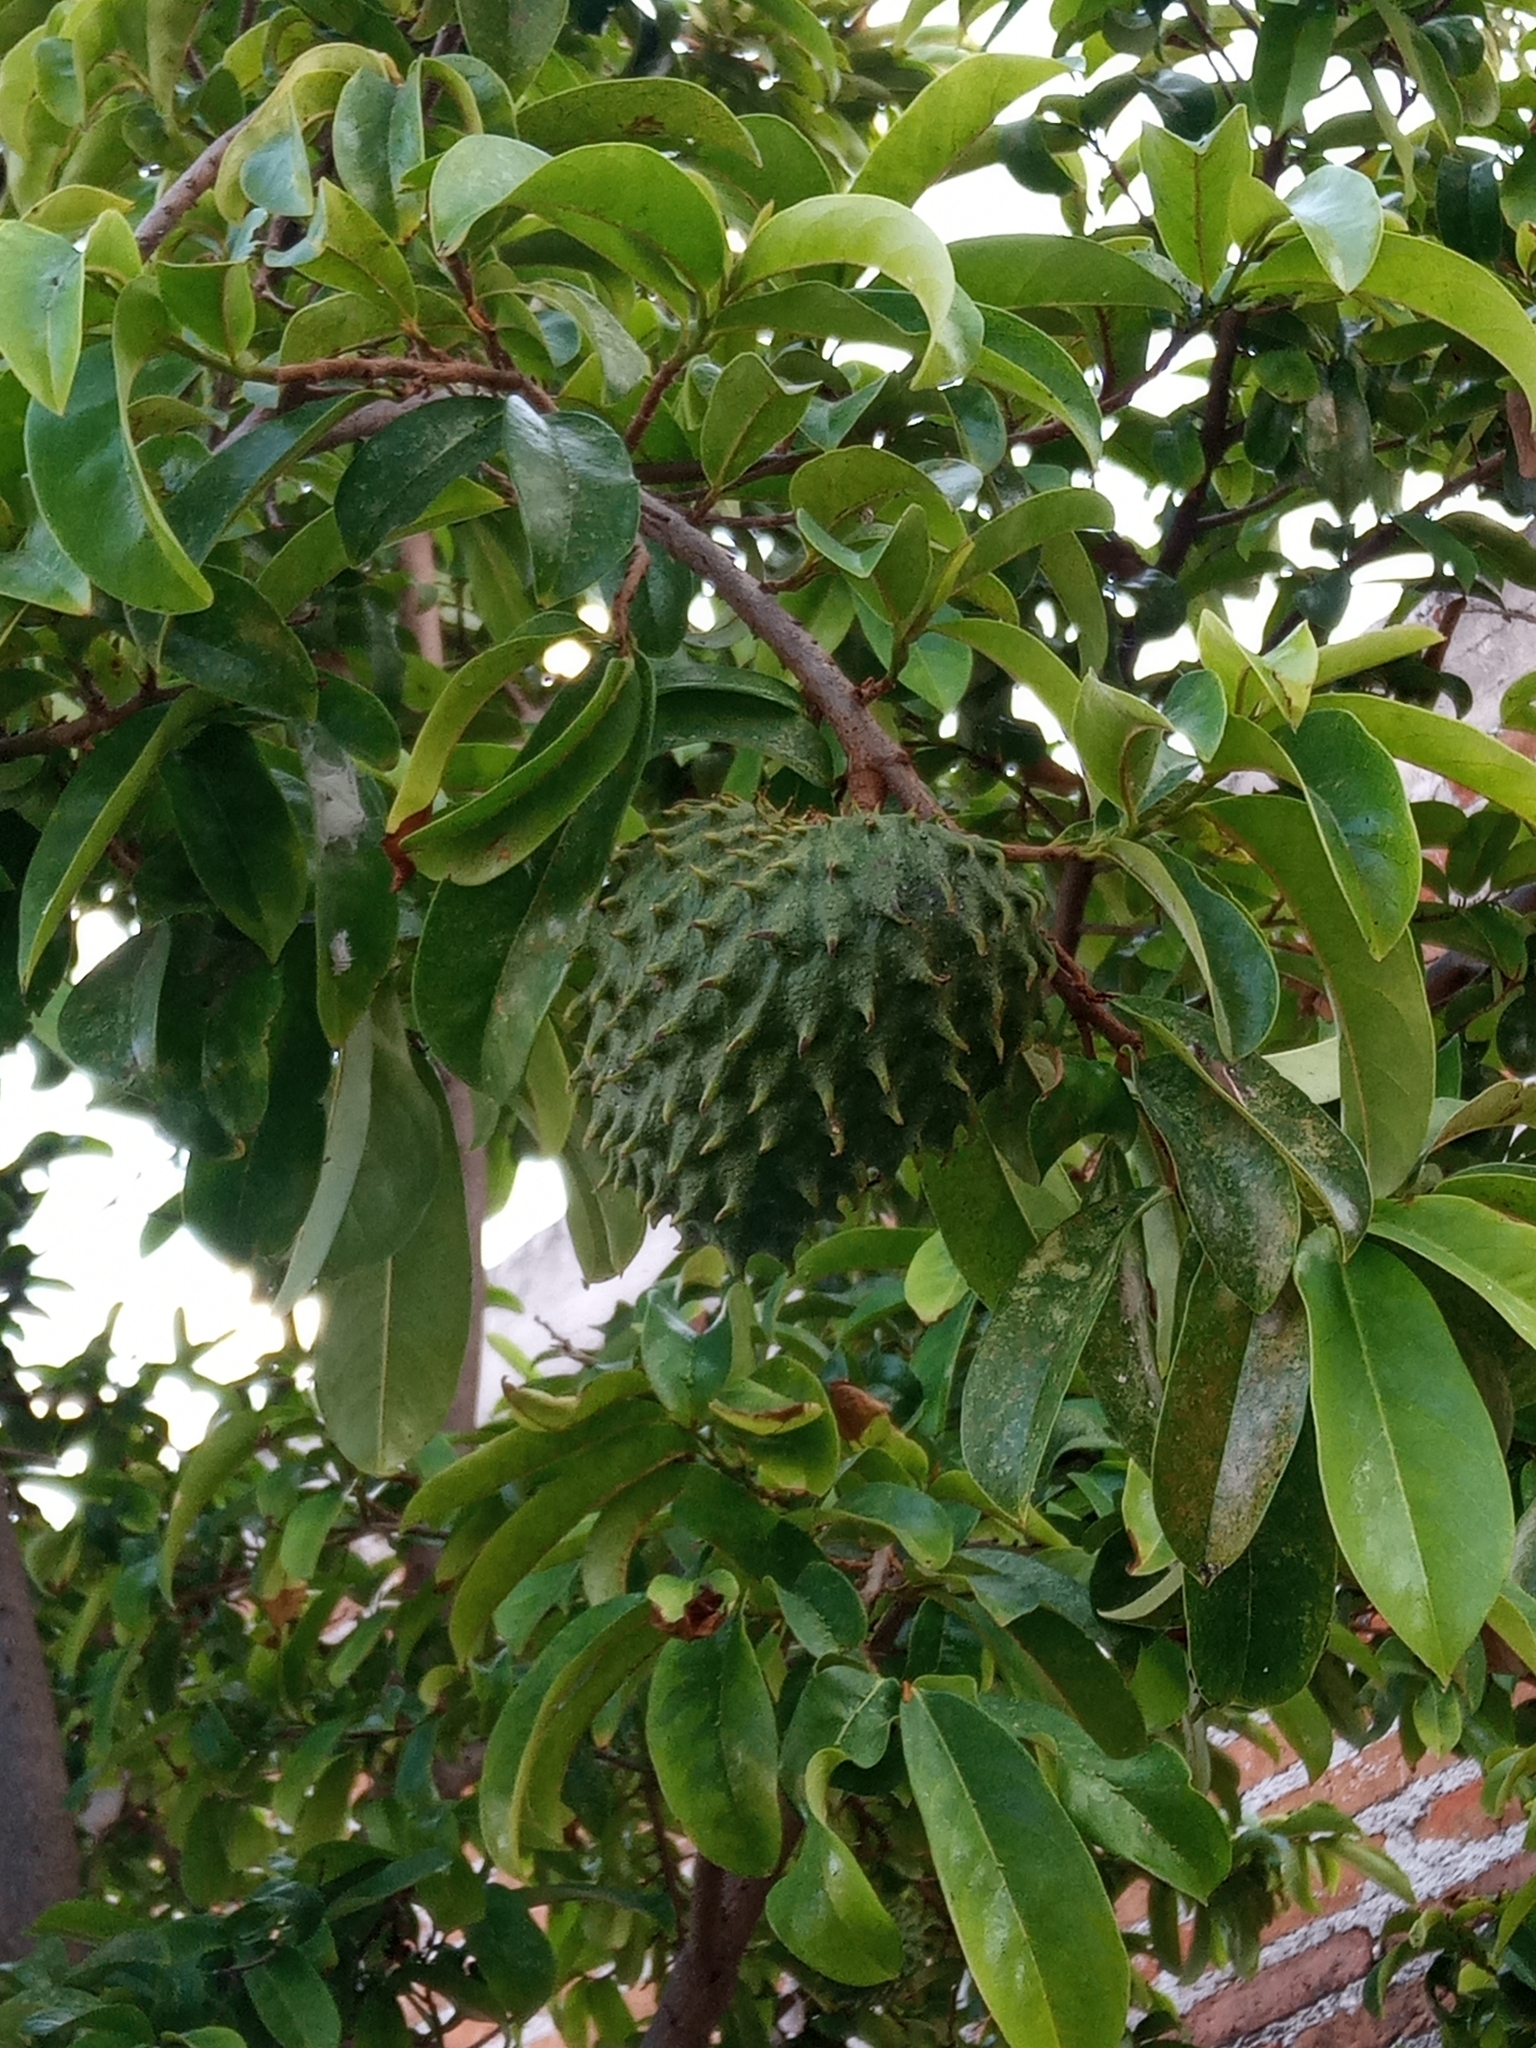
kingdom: Plantae
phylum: Tracheophyta
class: Magnoliopsida
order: Magnoliales
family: Annonaceae
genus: Annona
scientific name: Annona muricata
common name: Soursop
